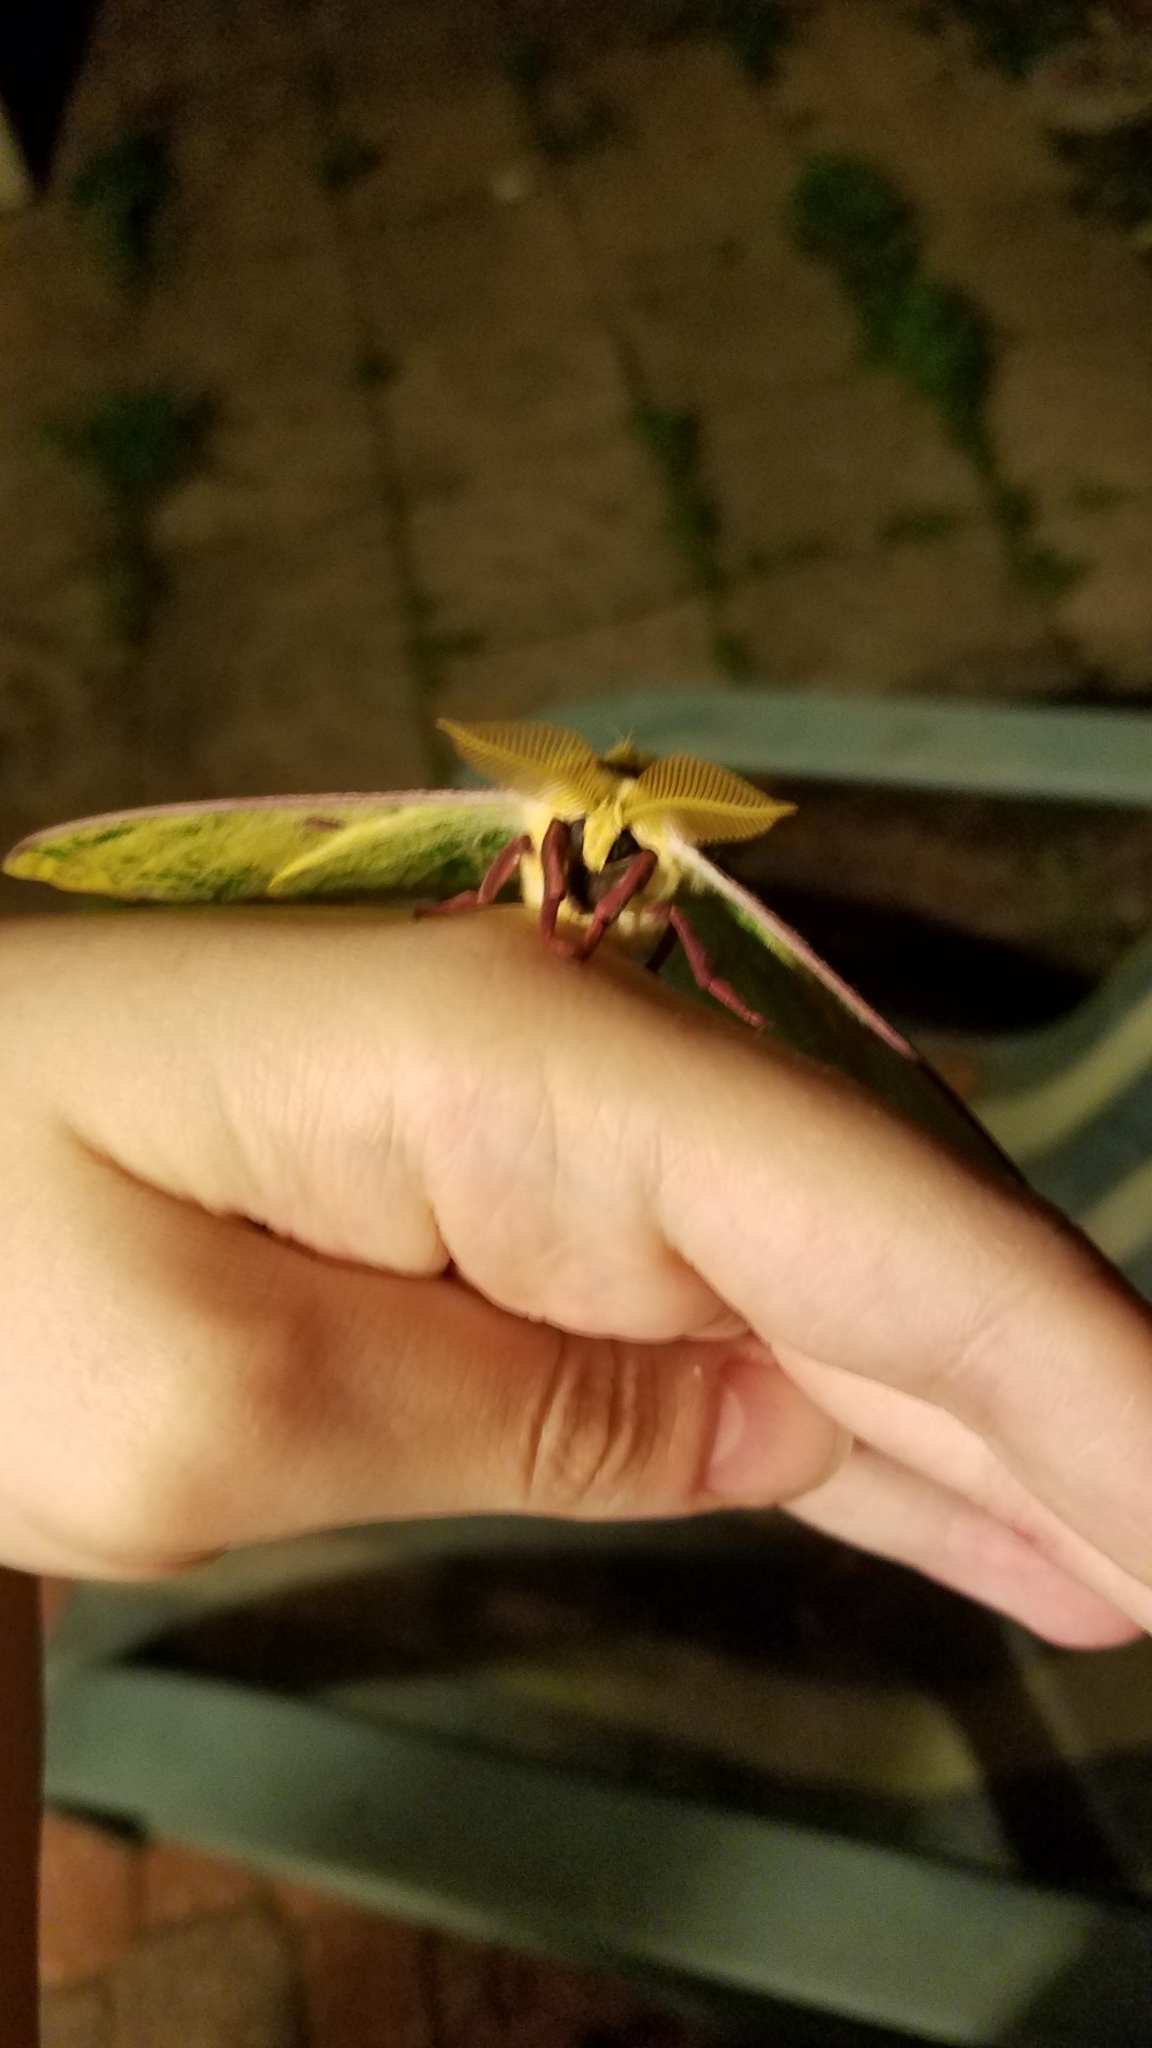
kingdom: Animalia
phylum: Arthropoda
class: Insecta
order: Lepidoptera
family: Saturniidae
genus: Actias
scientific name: Actias luna
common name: Luna moth
